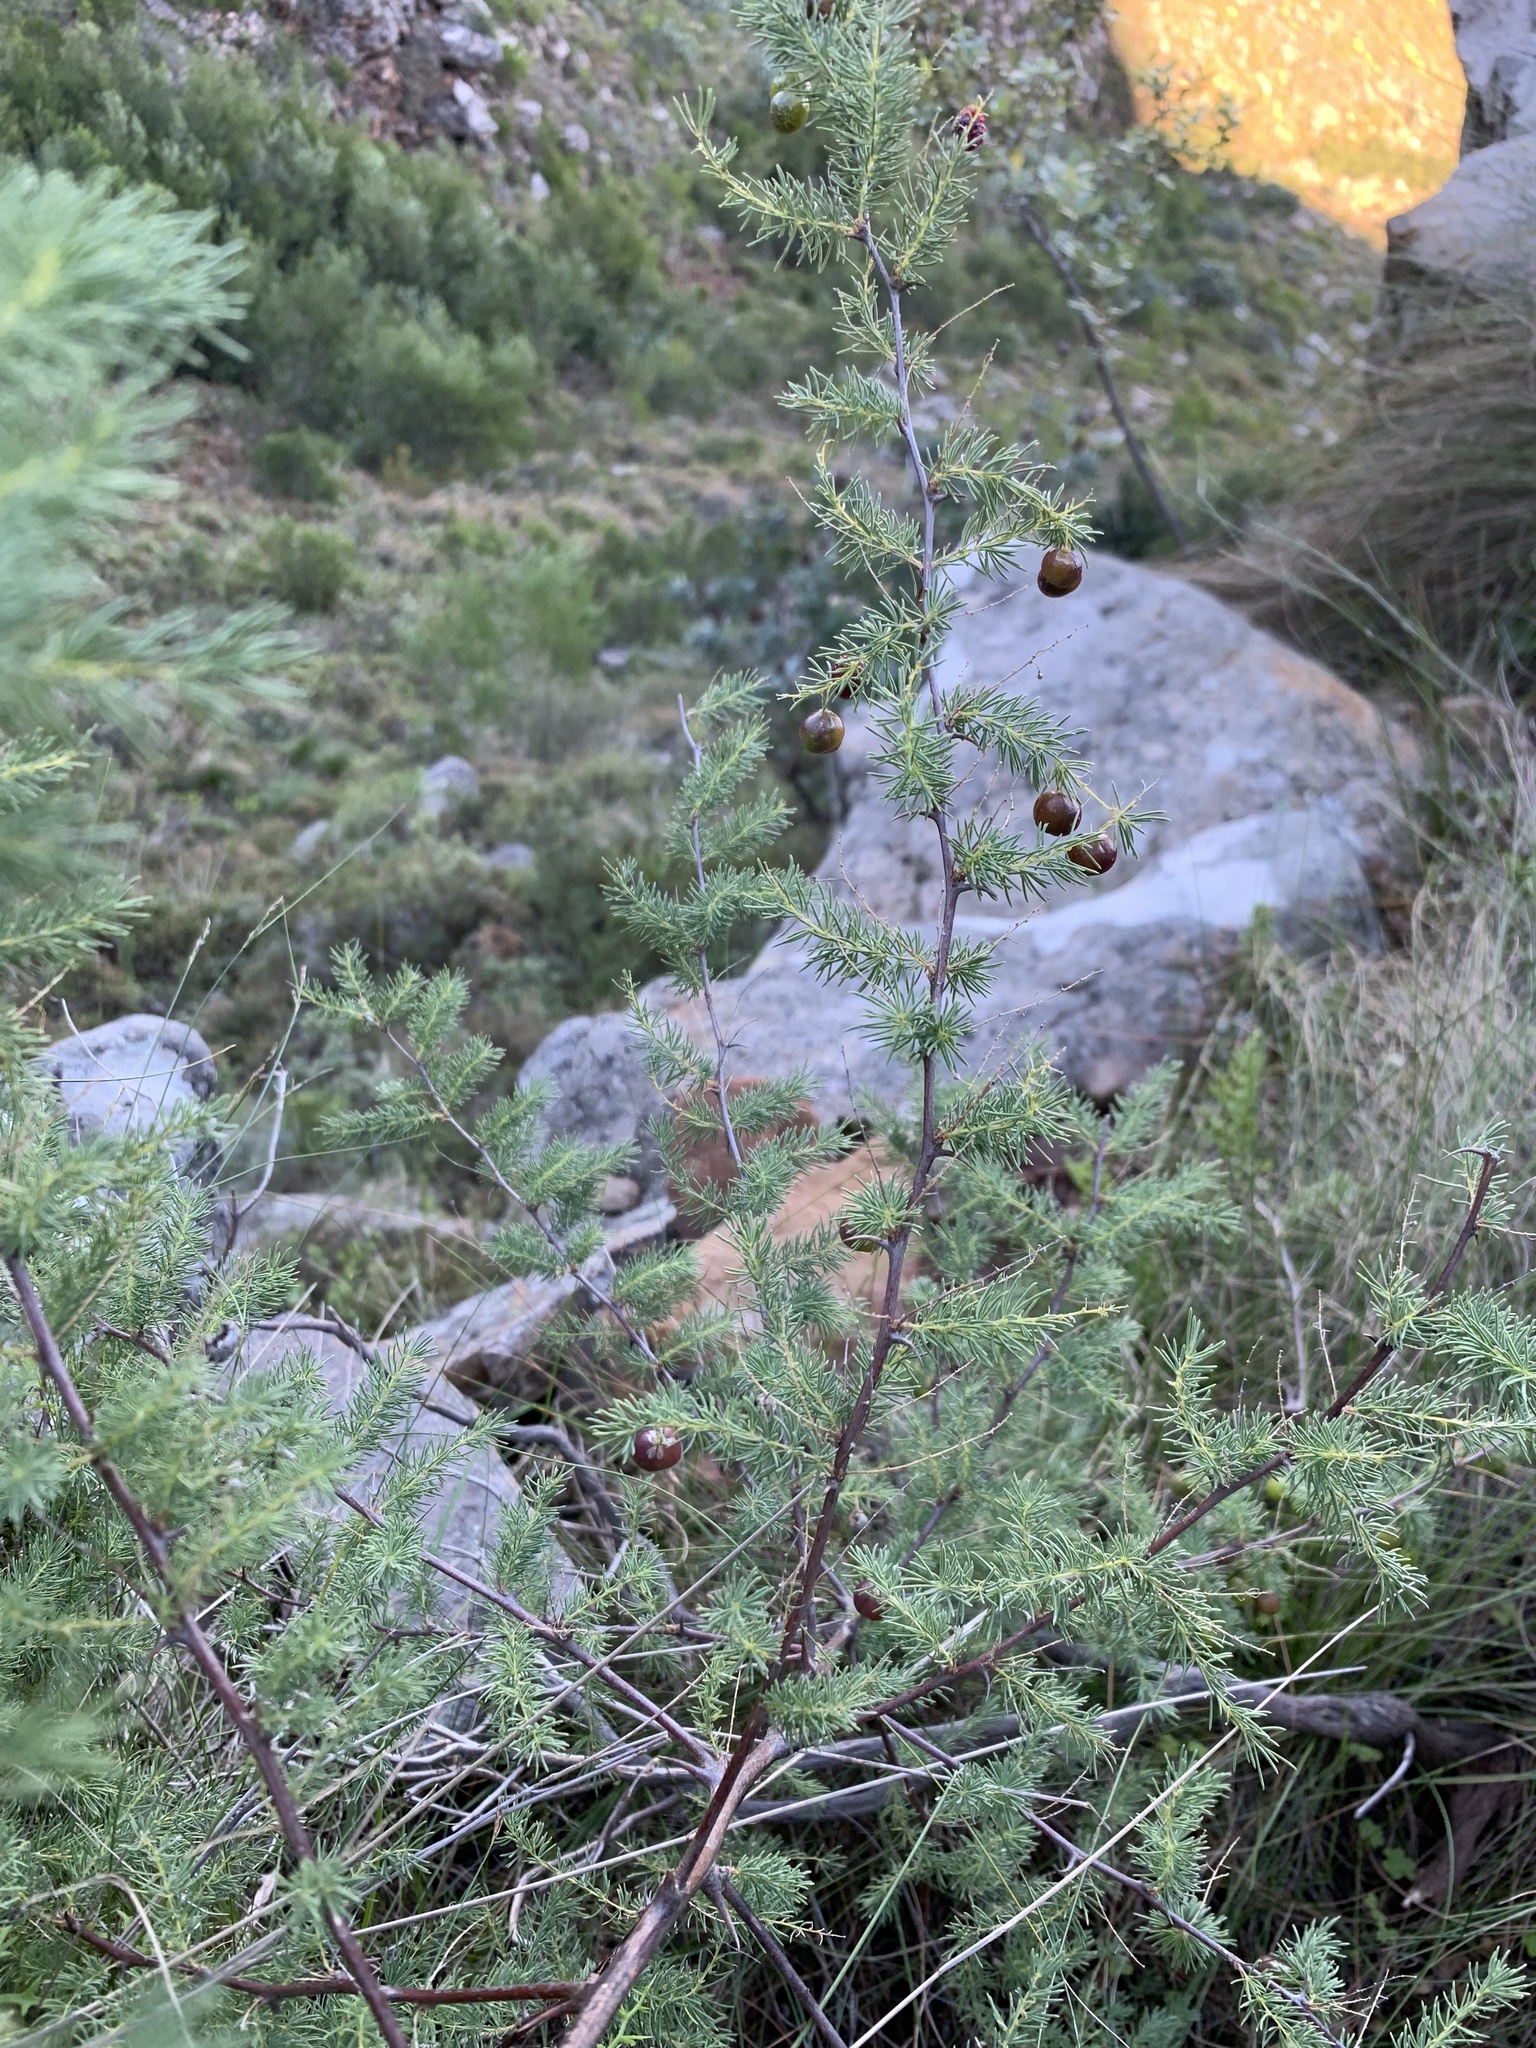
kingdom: Plantae
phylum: Tracheophyta
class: Liliopsida
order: Asparagales
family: Asparagaceae
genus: Asparagus
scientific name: Asparagus rubicundus
